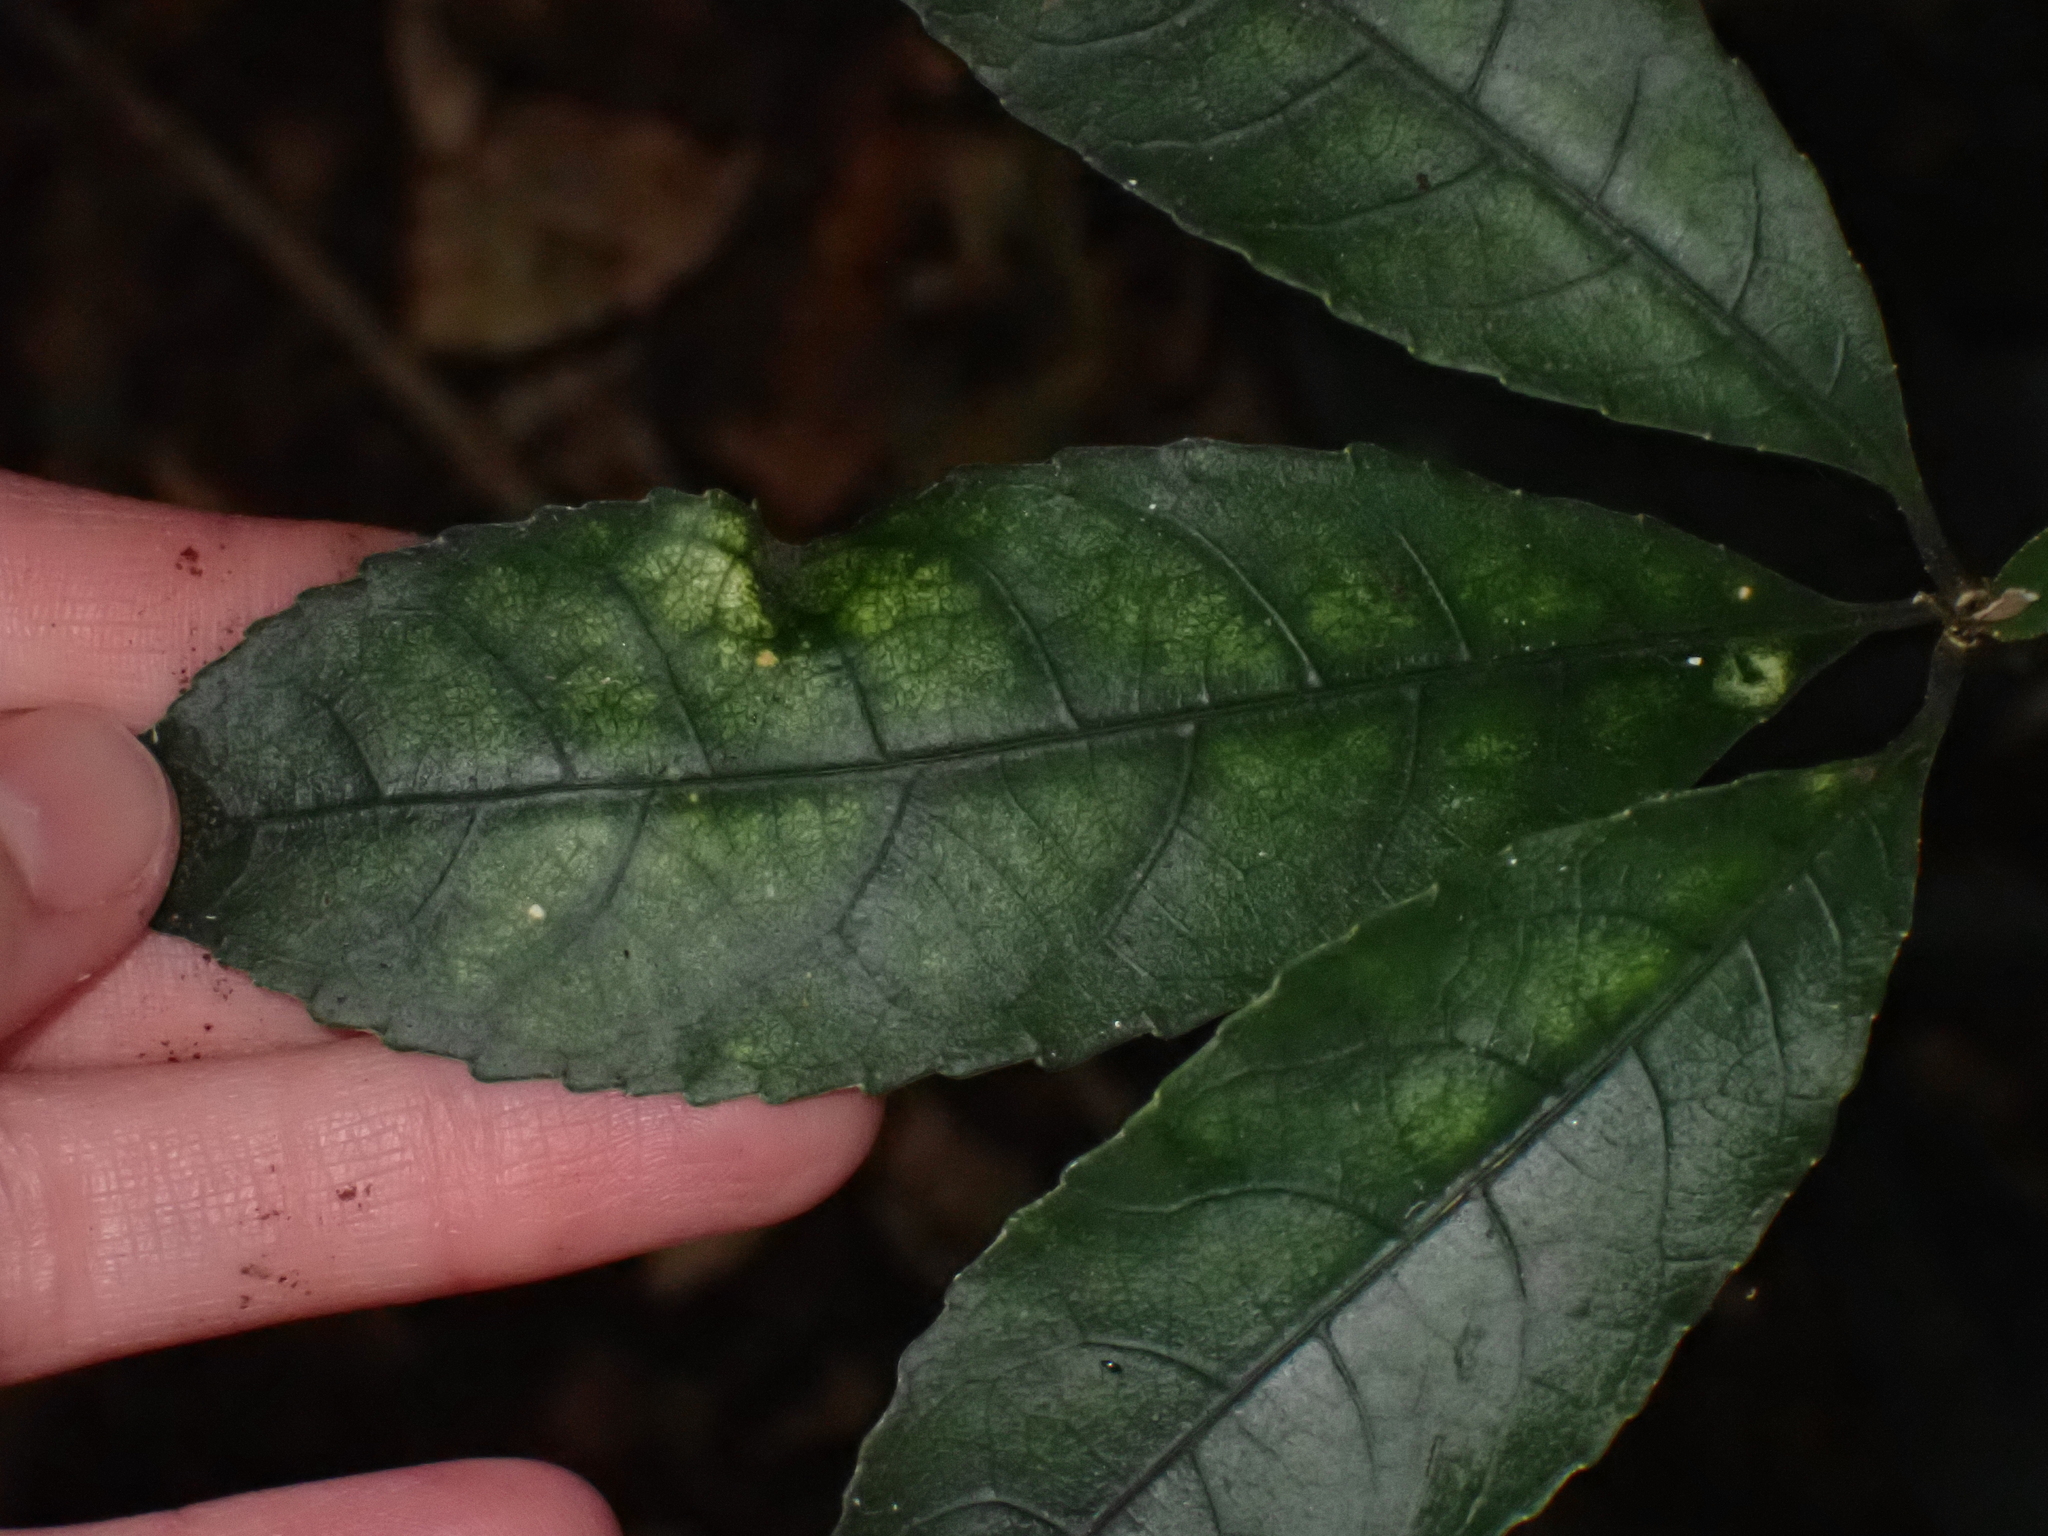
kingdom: Plantae
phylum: Tracheophyta
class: Magnoliopsida
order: Malpighiales
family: Violaceae
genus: Melicytus
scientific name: Melicytus ramiflorus
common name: Mahoe
